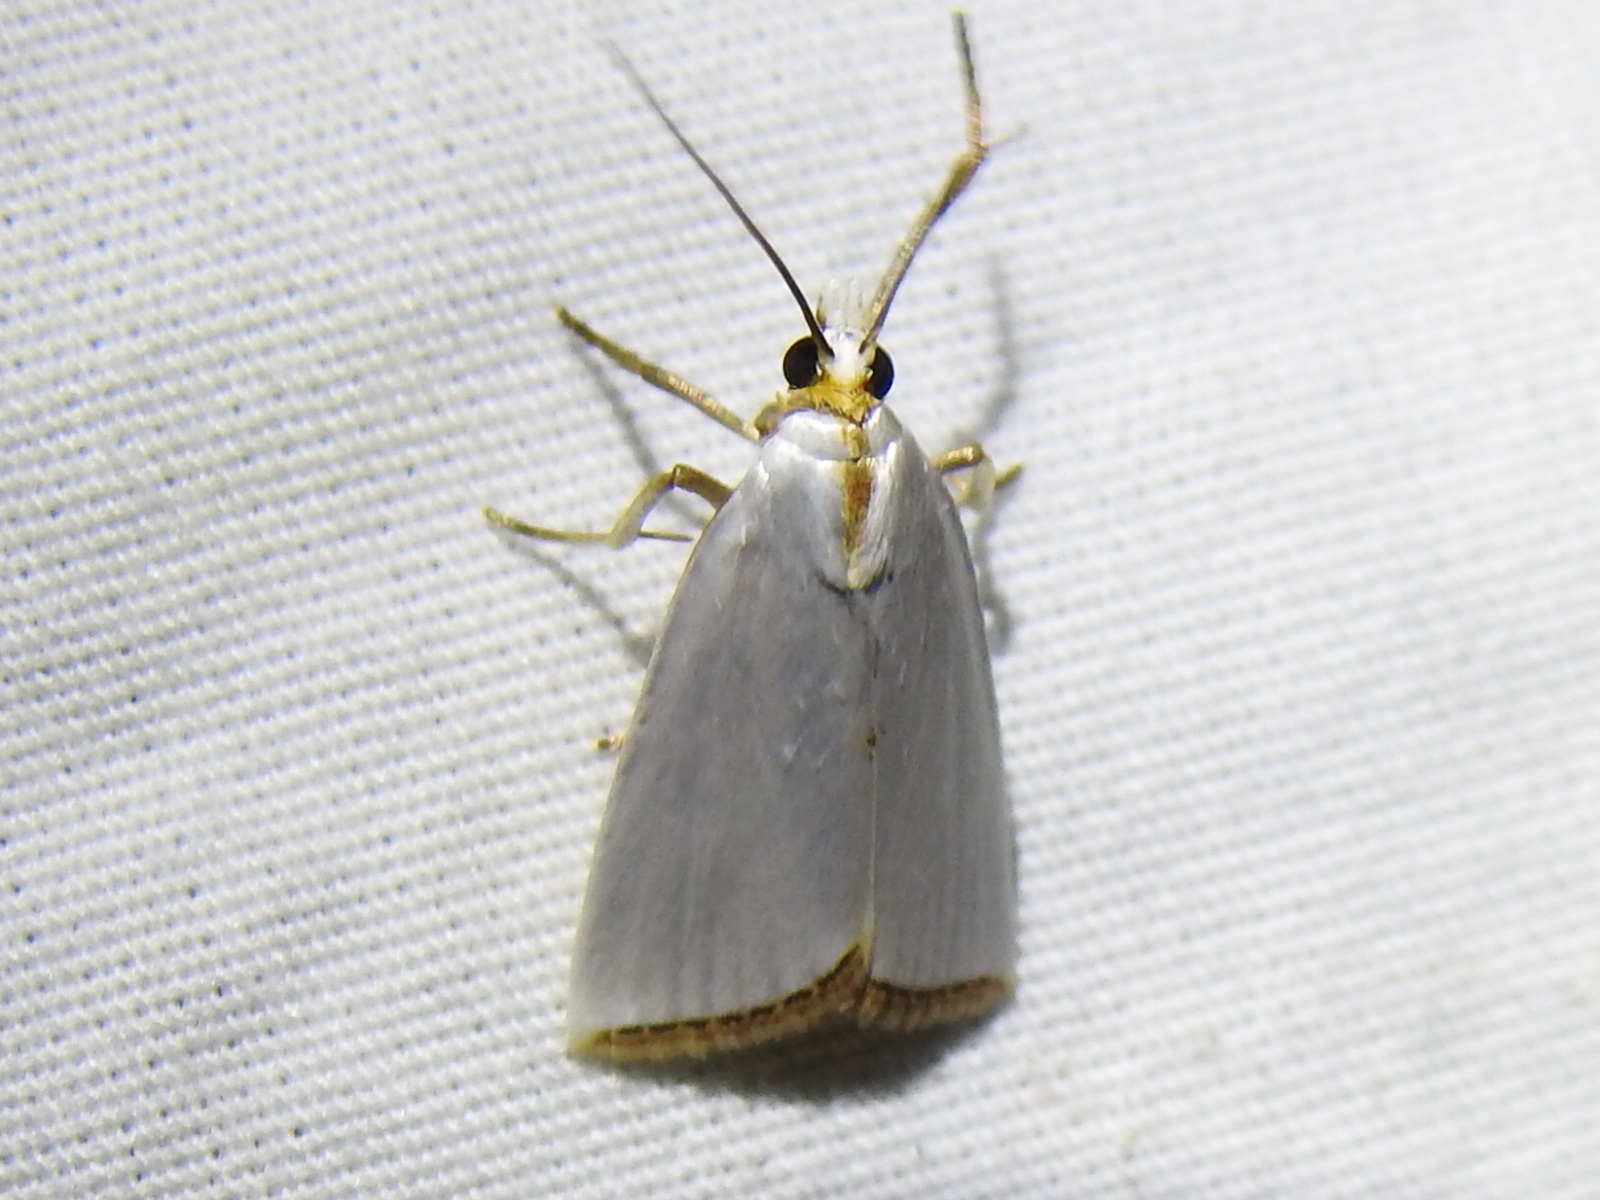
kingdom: Animalia
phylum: Arthropoda
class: Insecta
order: Lepidoptera
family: Crambidae
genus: Argyria
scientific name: Argyria nivalis
